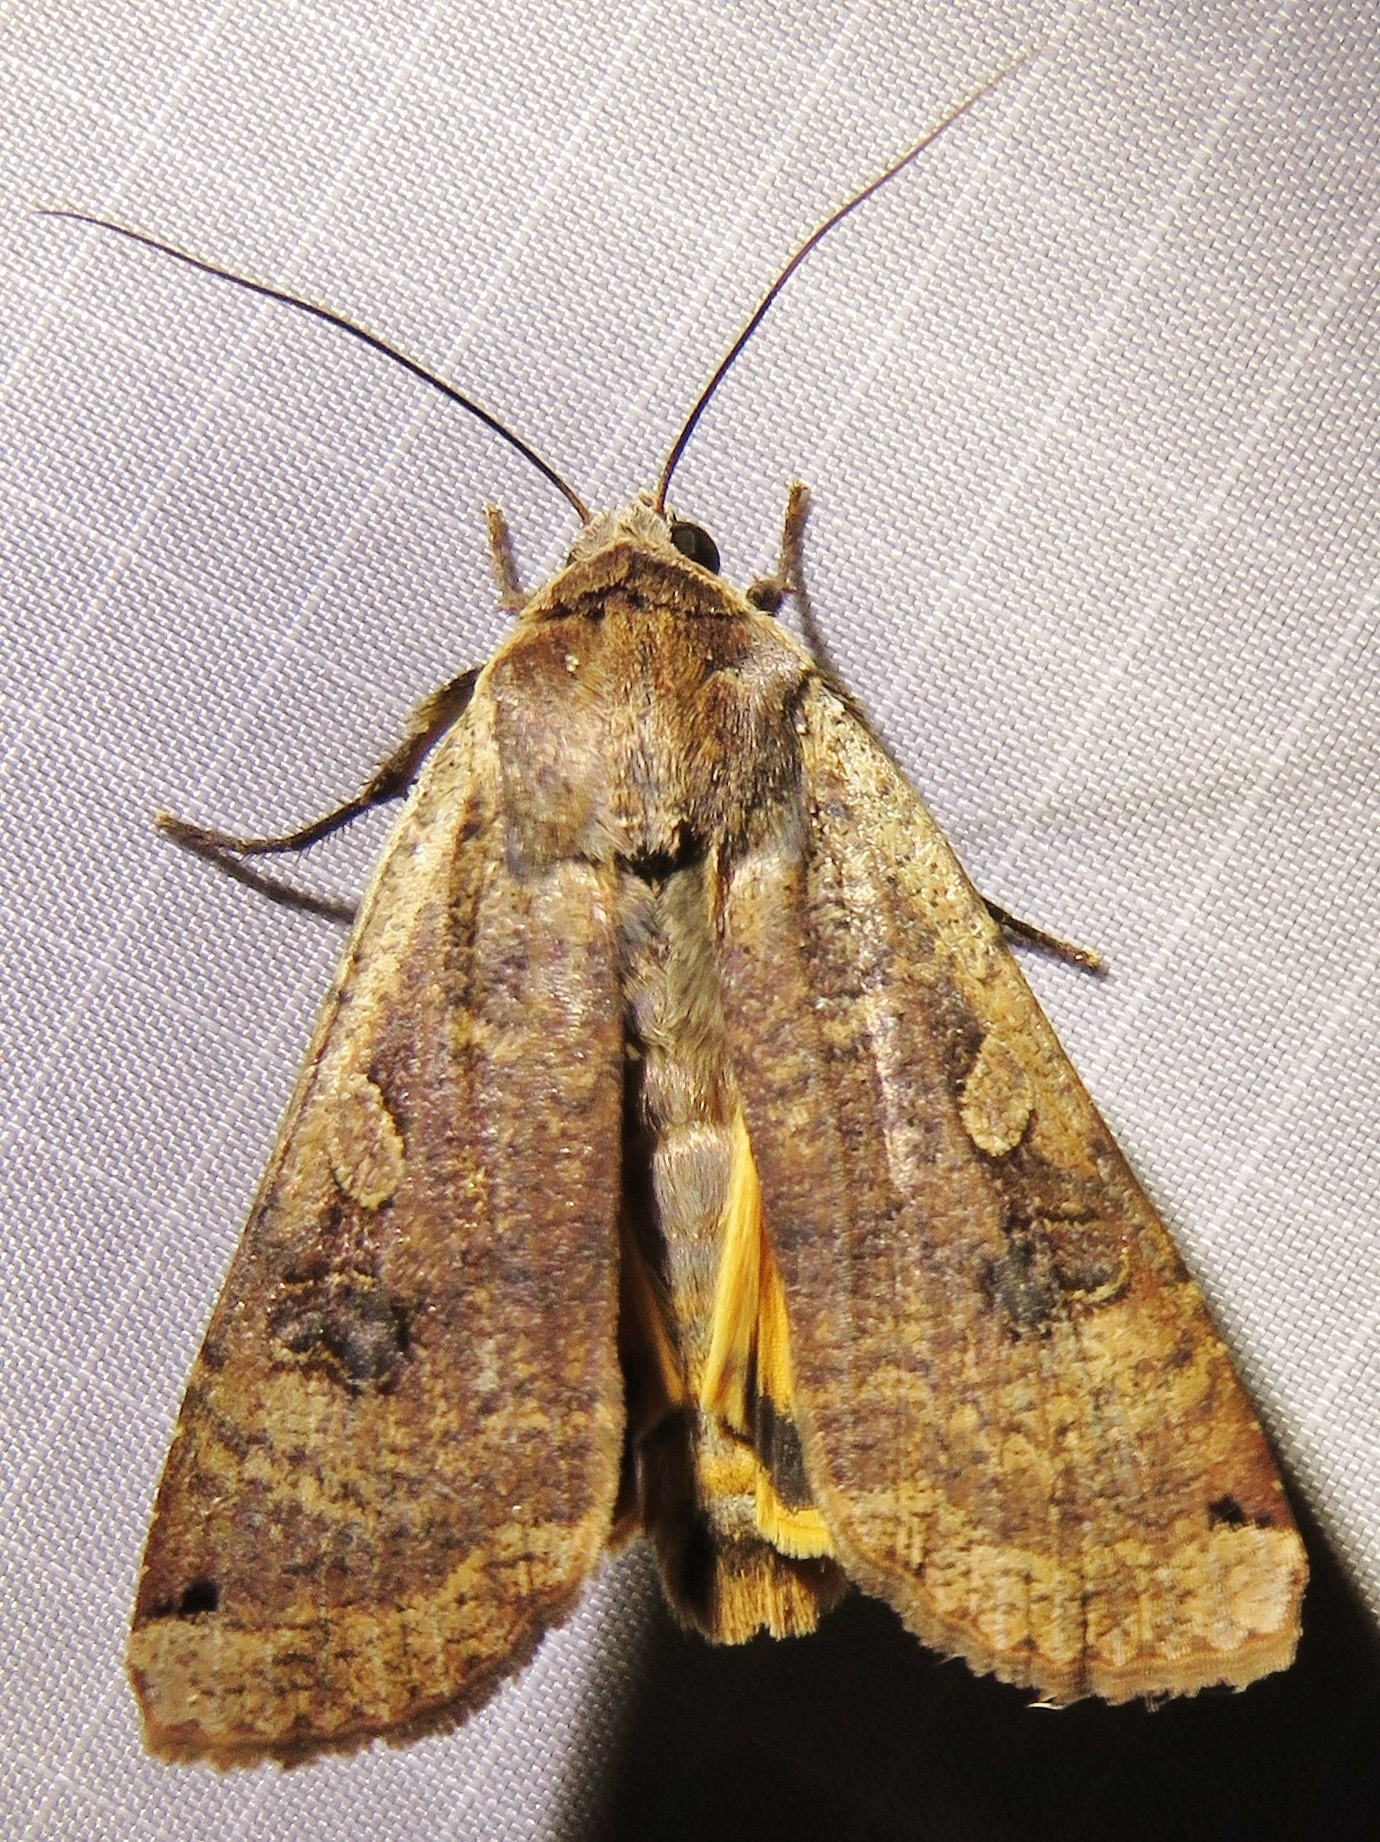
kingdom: Animalia
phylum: Arthropoda
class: Insecta
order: Lepidoptera
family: Noctuidae
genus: Noctua
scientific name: Noctua pronuba
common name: Large yellow underwing
